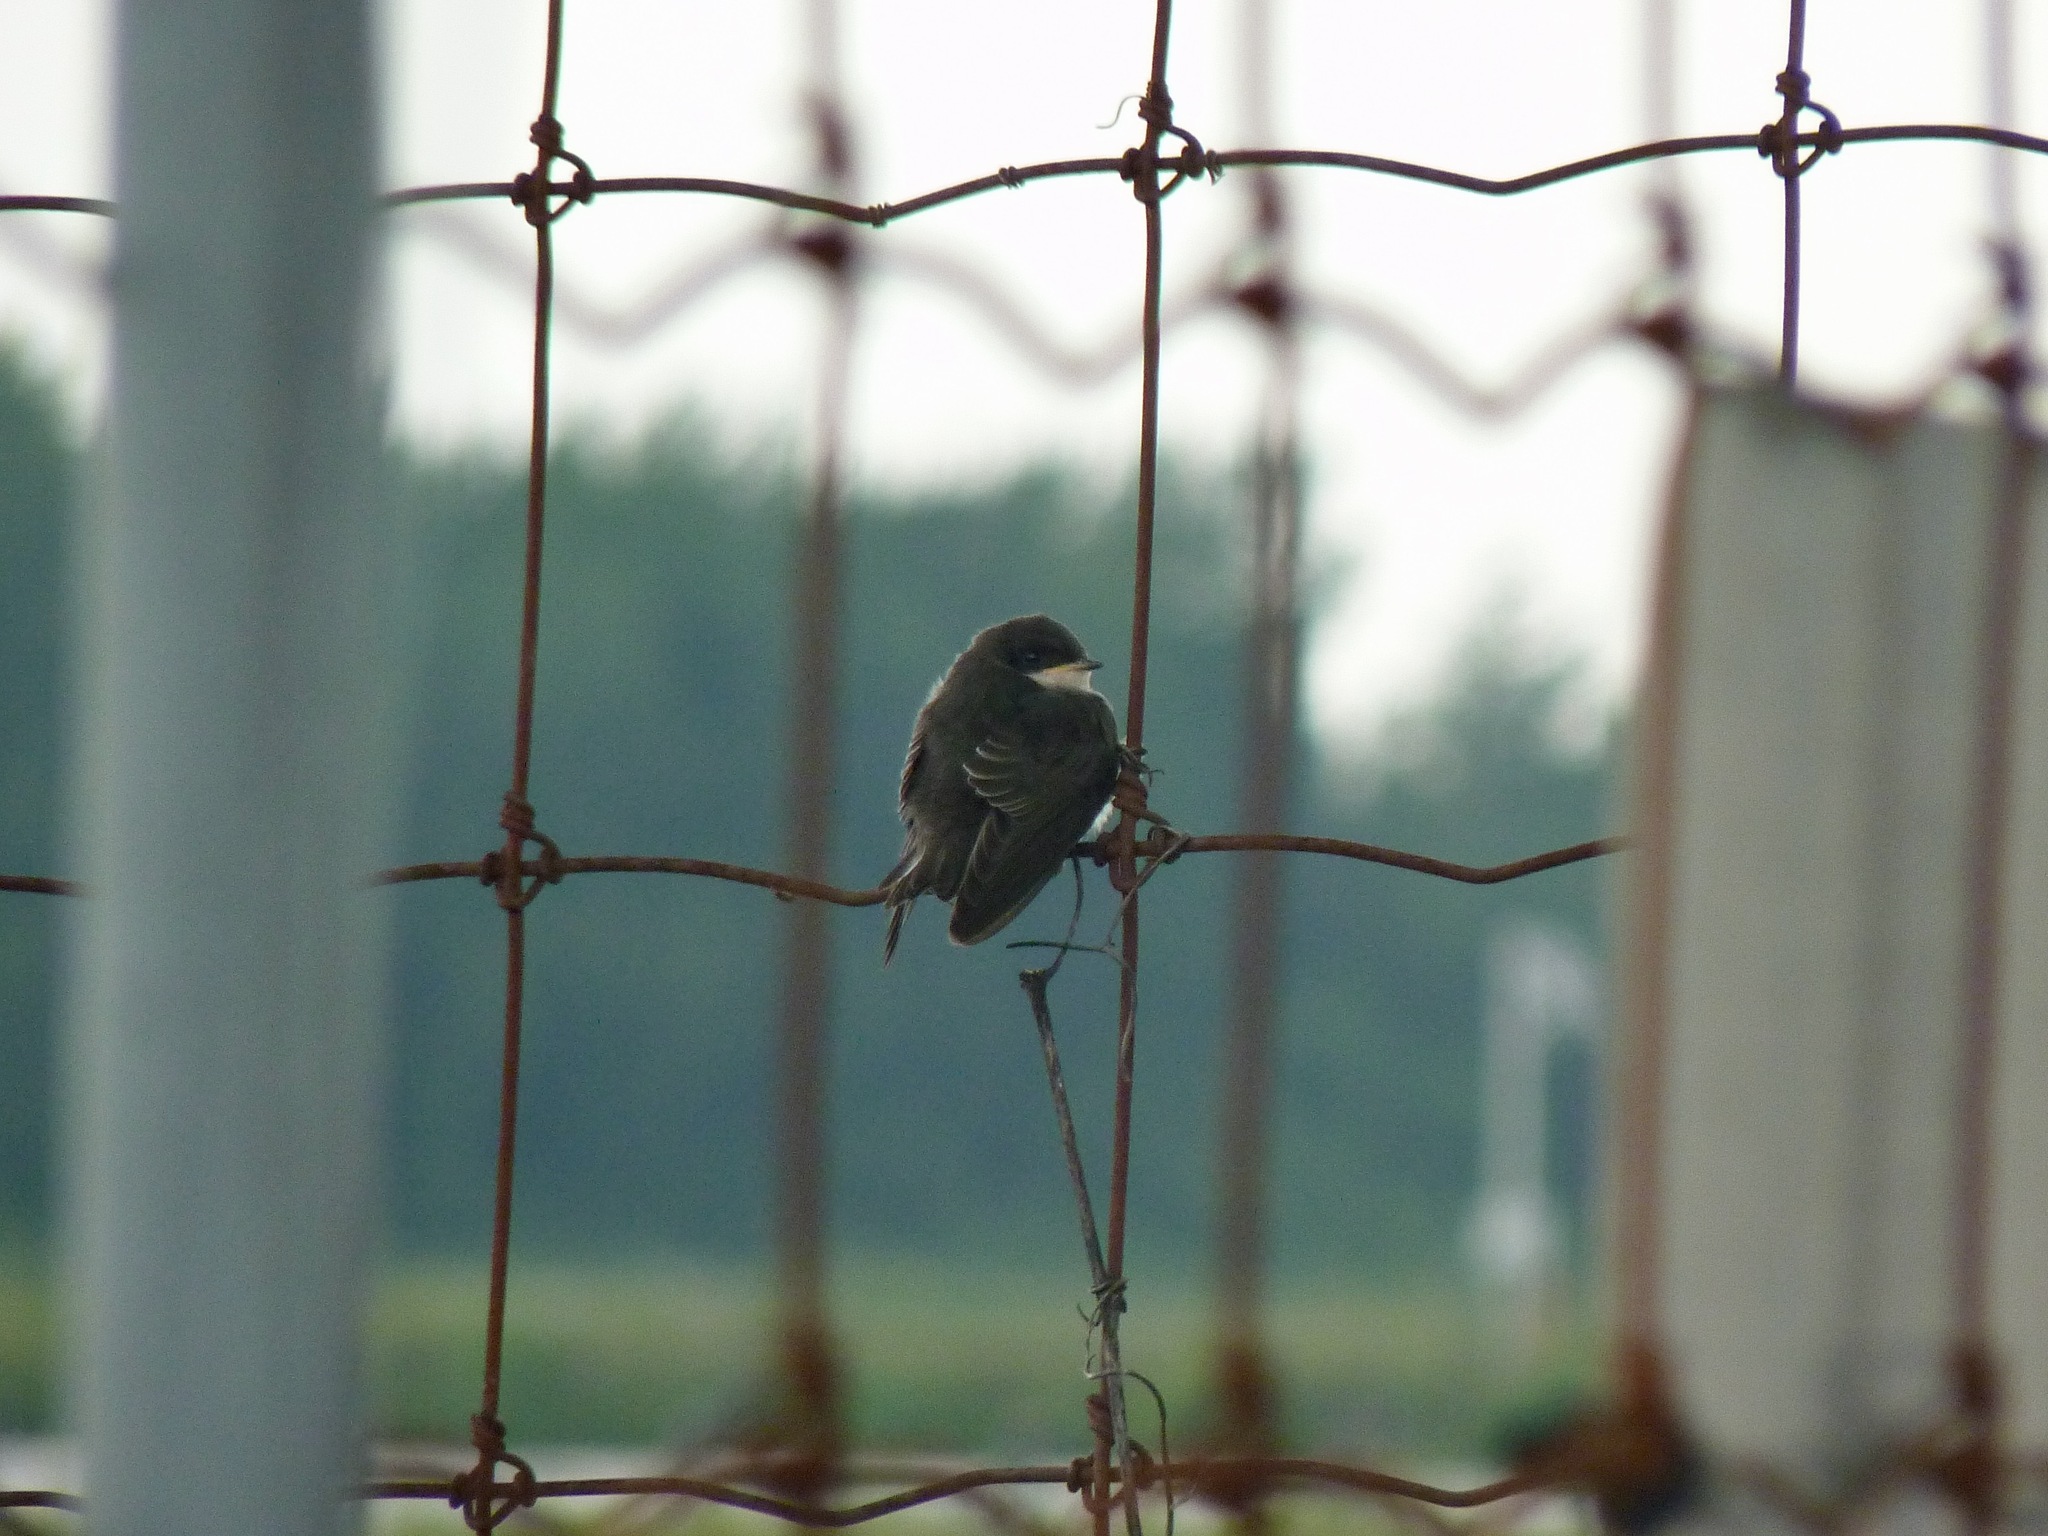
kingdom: Animalia
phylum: Chordata
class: Aves
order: Passeriformes
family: Hirundinidae
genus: Tachycineta
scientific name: Tachycineta bicolor
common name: Tree swallow
